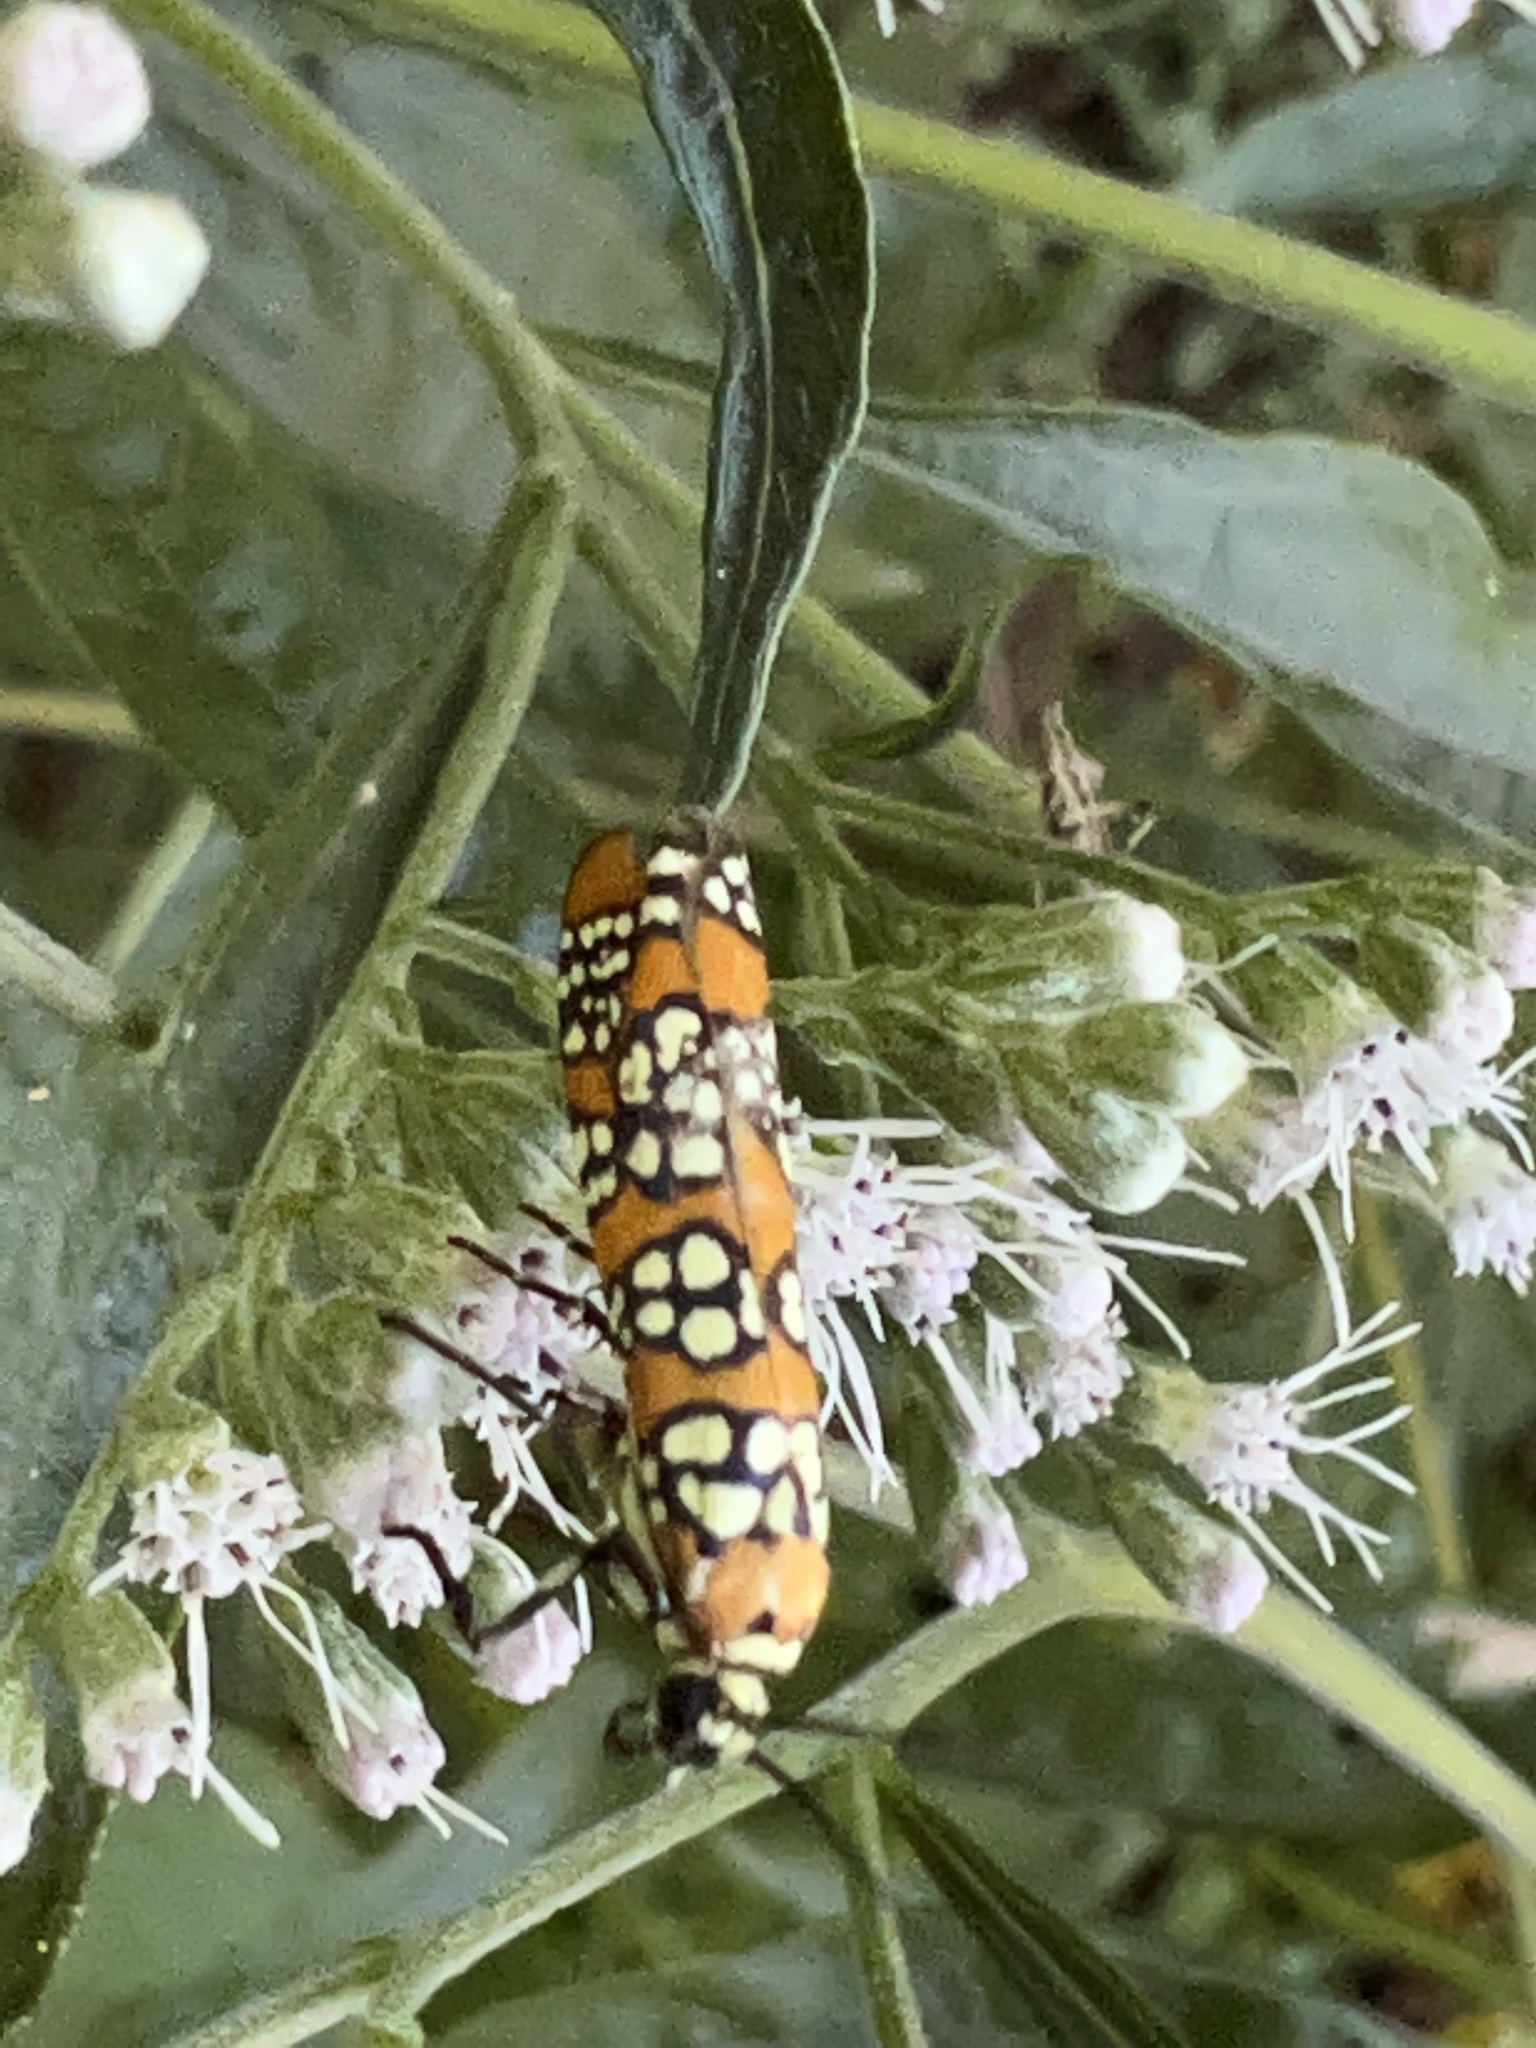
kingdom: Animalia
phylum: Arthropoda
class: Insecta
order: Lepidoptera
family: Attevidae
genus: Atteva
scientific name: Atteva punctella
